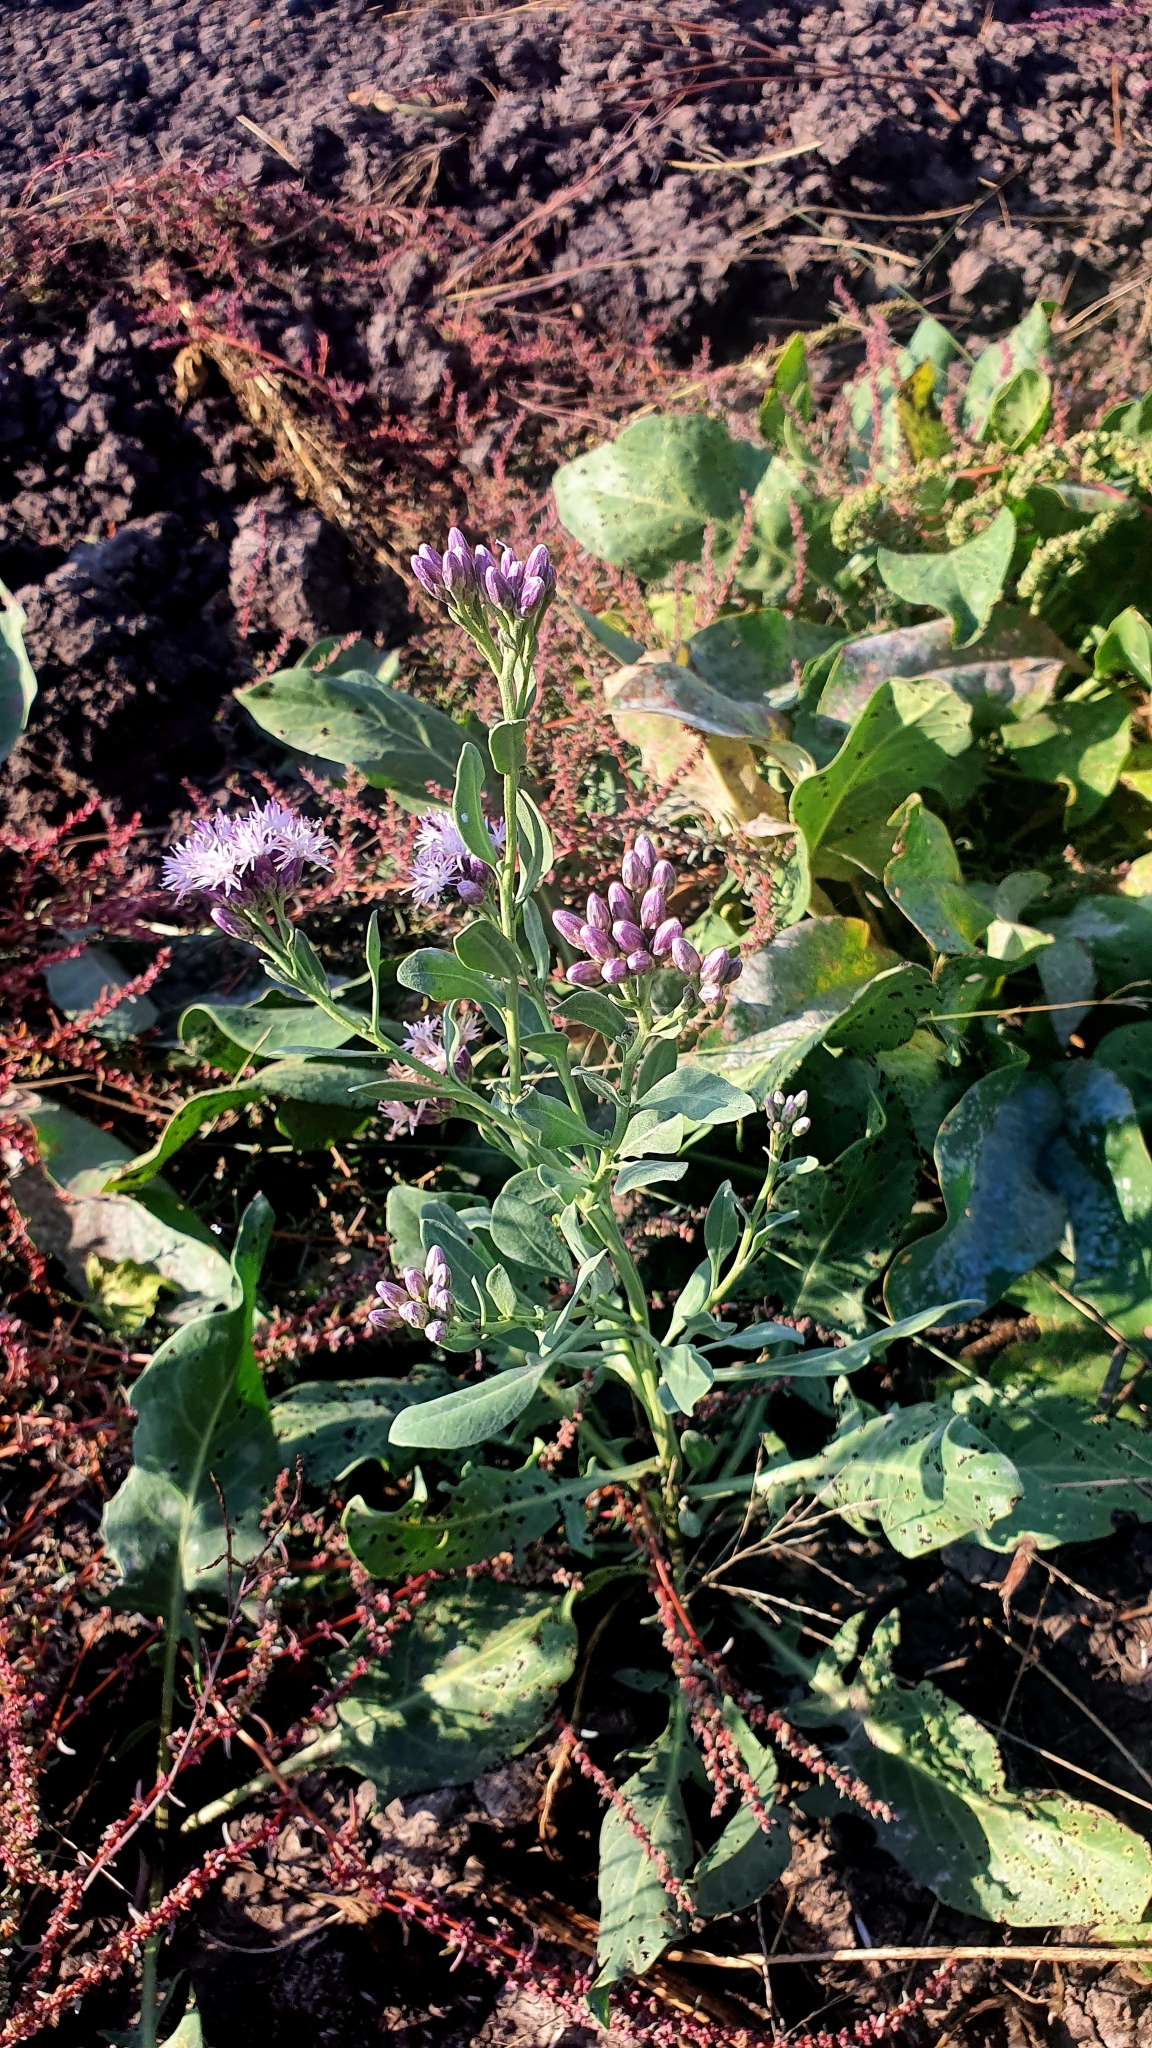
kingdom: Plantae
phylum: Tracheophyta
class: Magnoliopsida
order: Asterales
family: Asteraceae
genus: Saussurea
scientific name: Saussurea salsa
